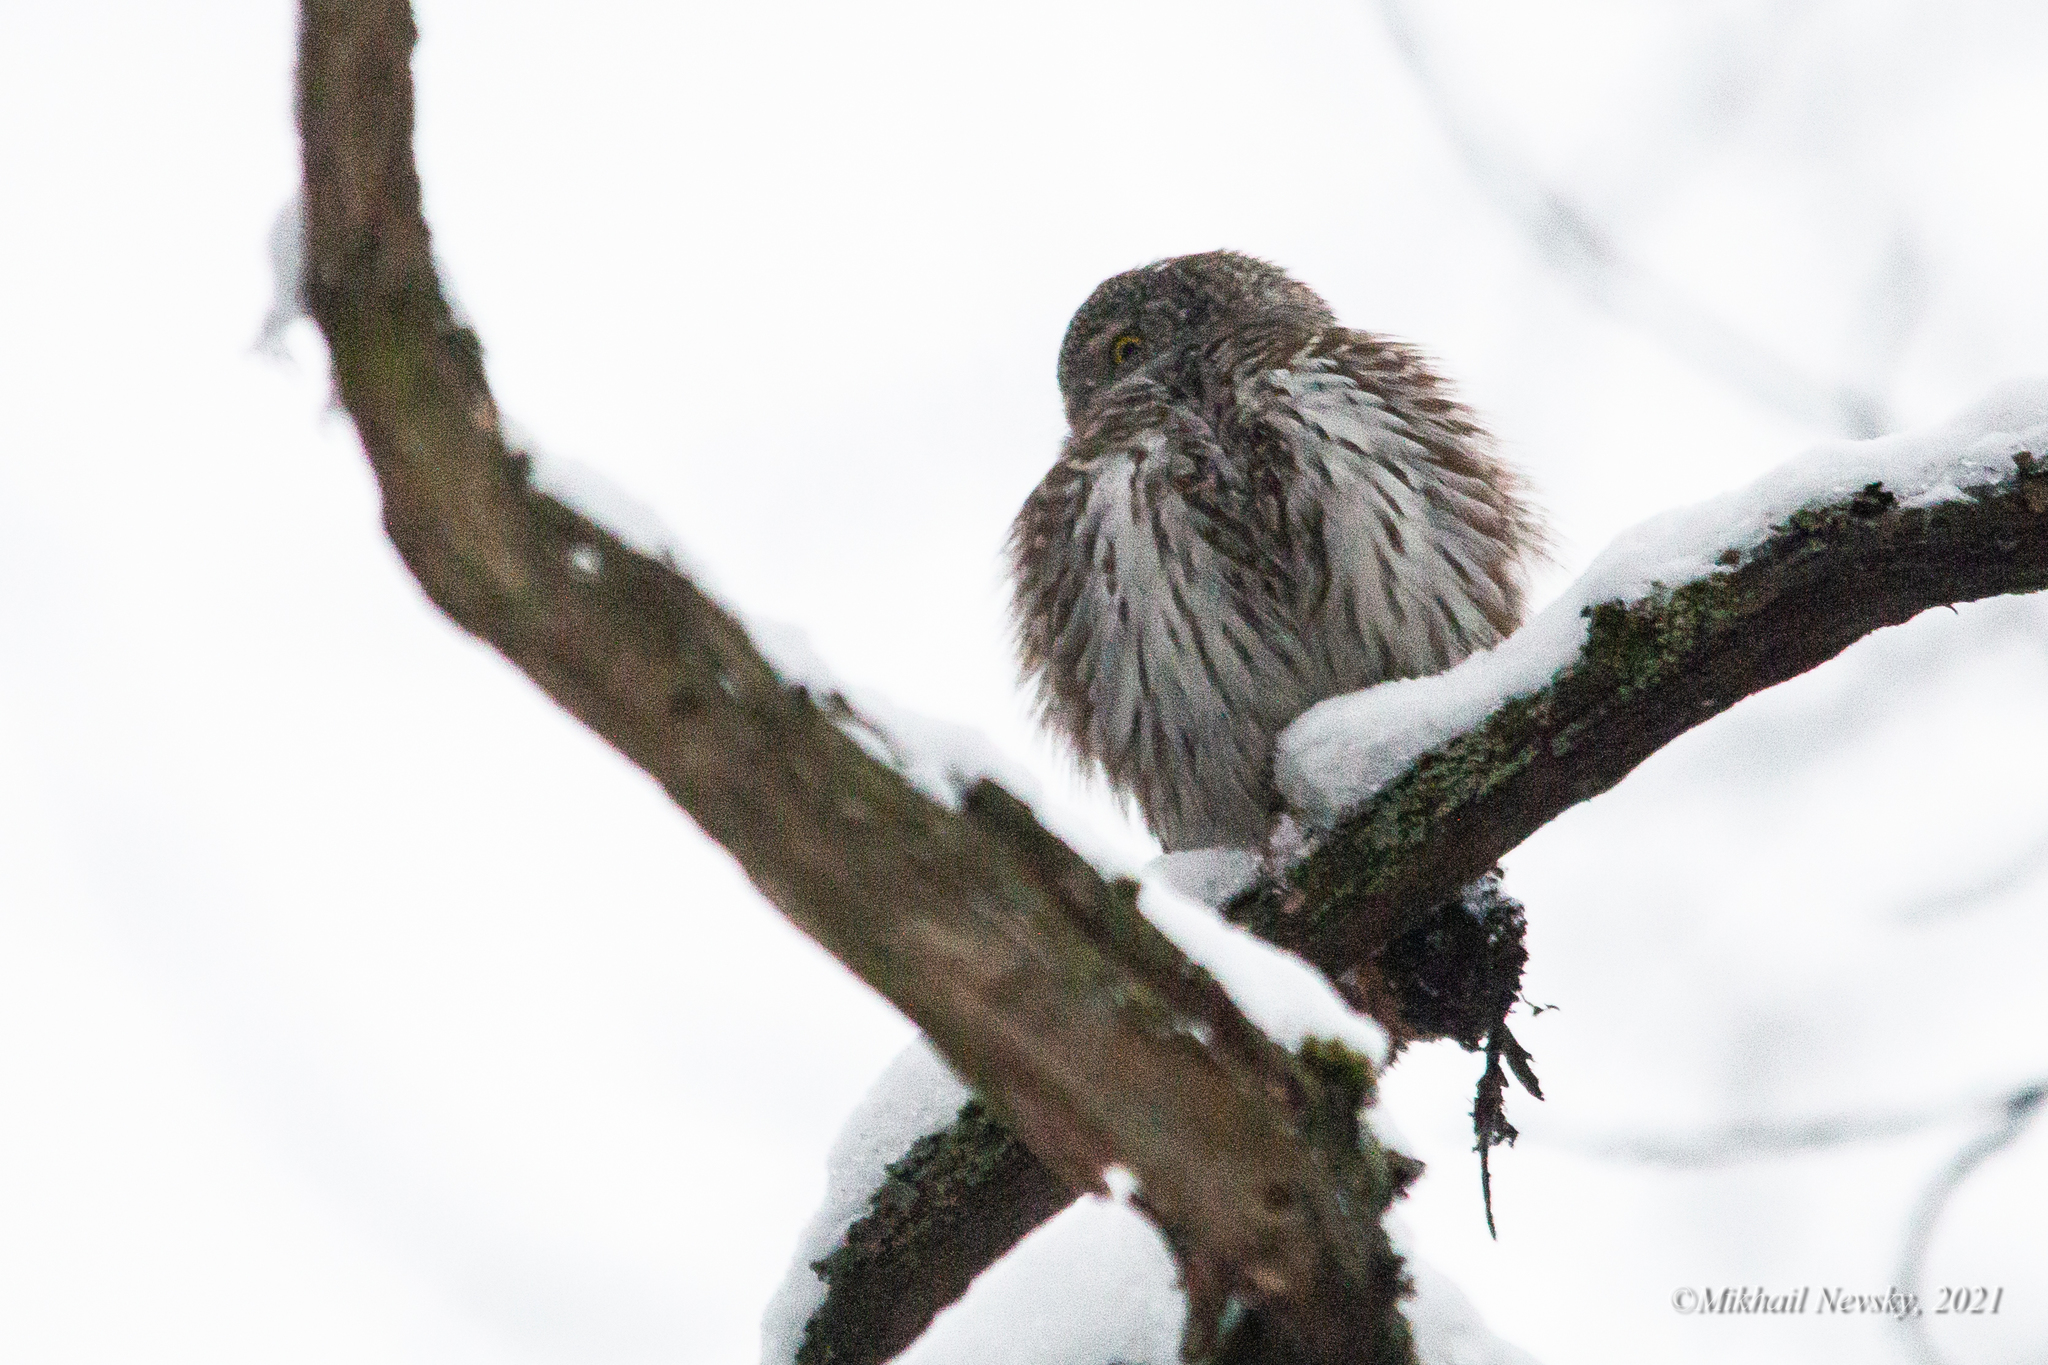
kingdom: Animalia
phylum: Chordata
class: Aves
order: Strigiformes
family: Strigidae
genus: Glaucidium
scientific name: Glaucidium passerinum
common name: Eurasian pygmy owl
